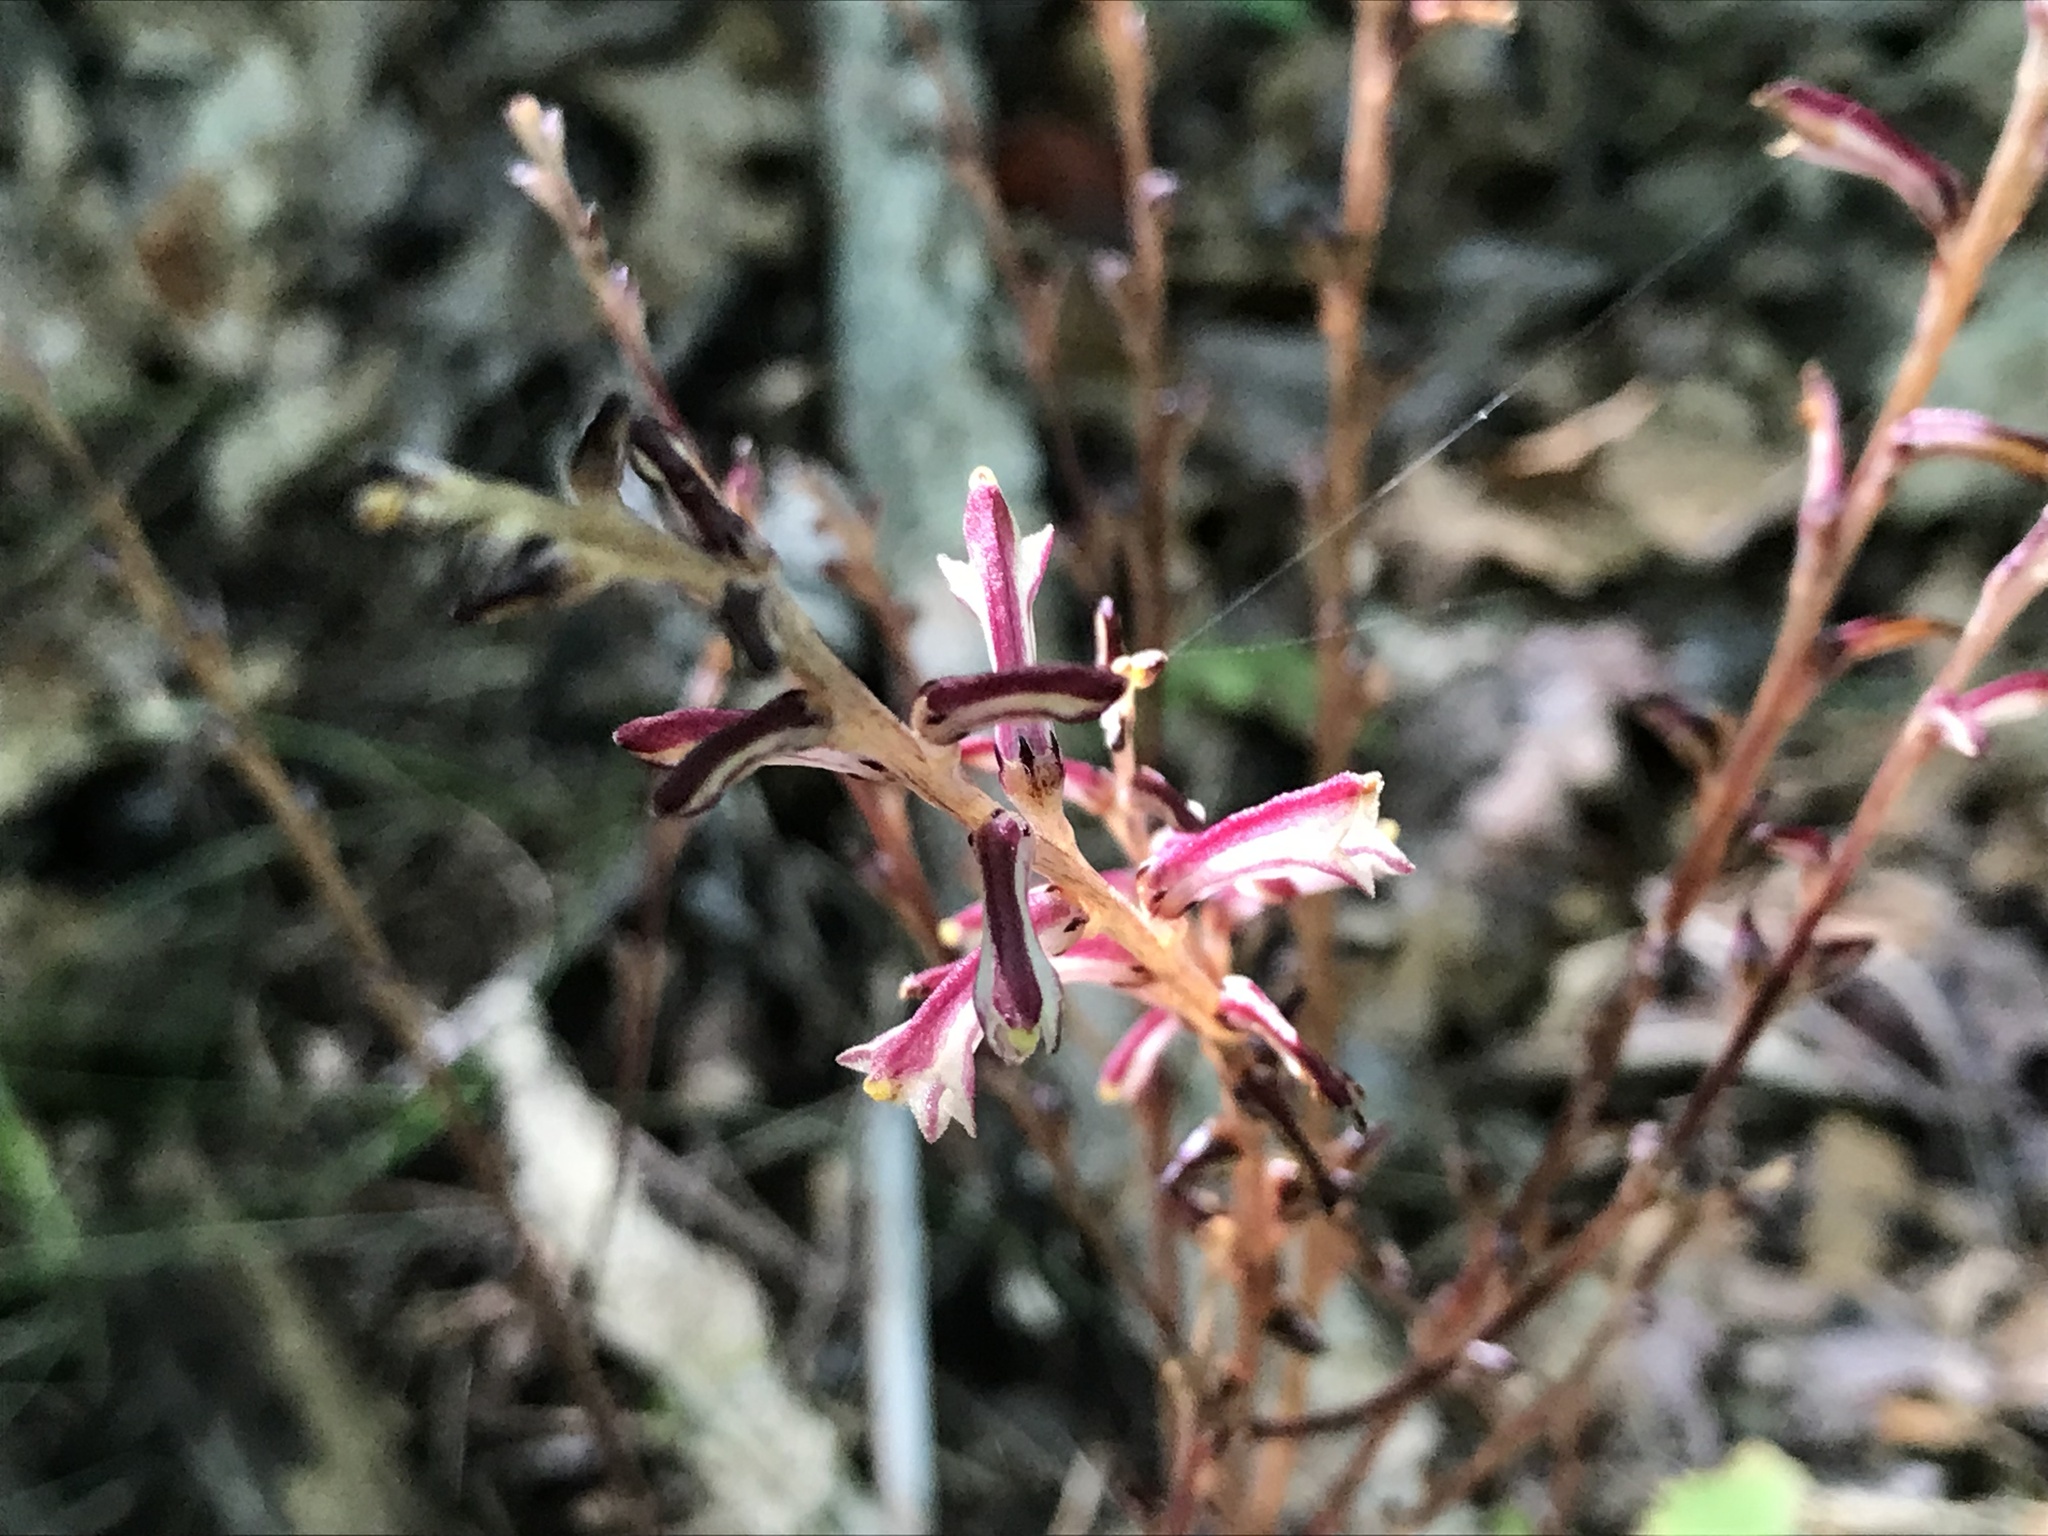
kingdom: Plantae
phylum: Tracheophyta
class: Magnoliopsida
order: Lamiales
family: Orobanchaceae
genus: Epifagus
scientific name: Epifagus virginiana
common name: Beechdrops
